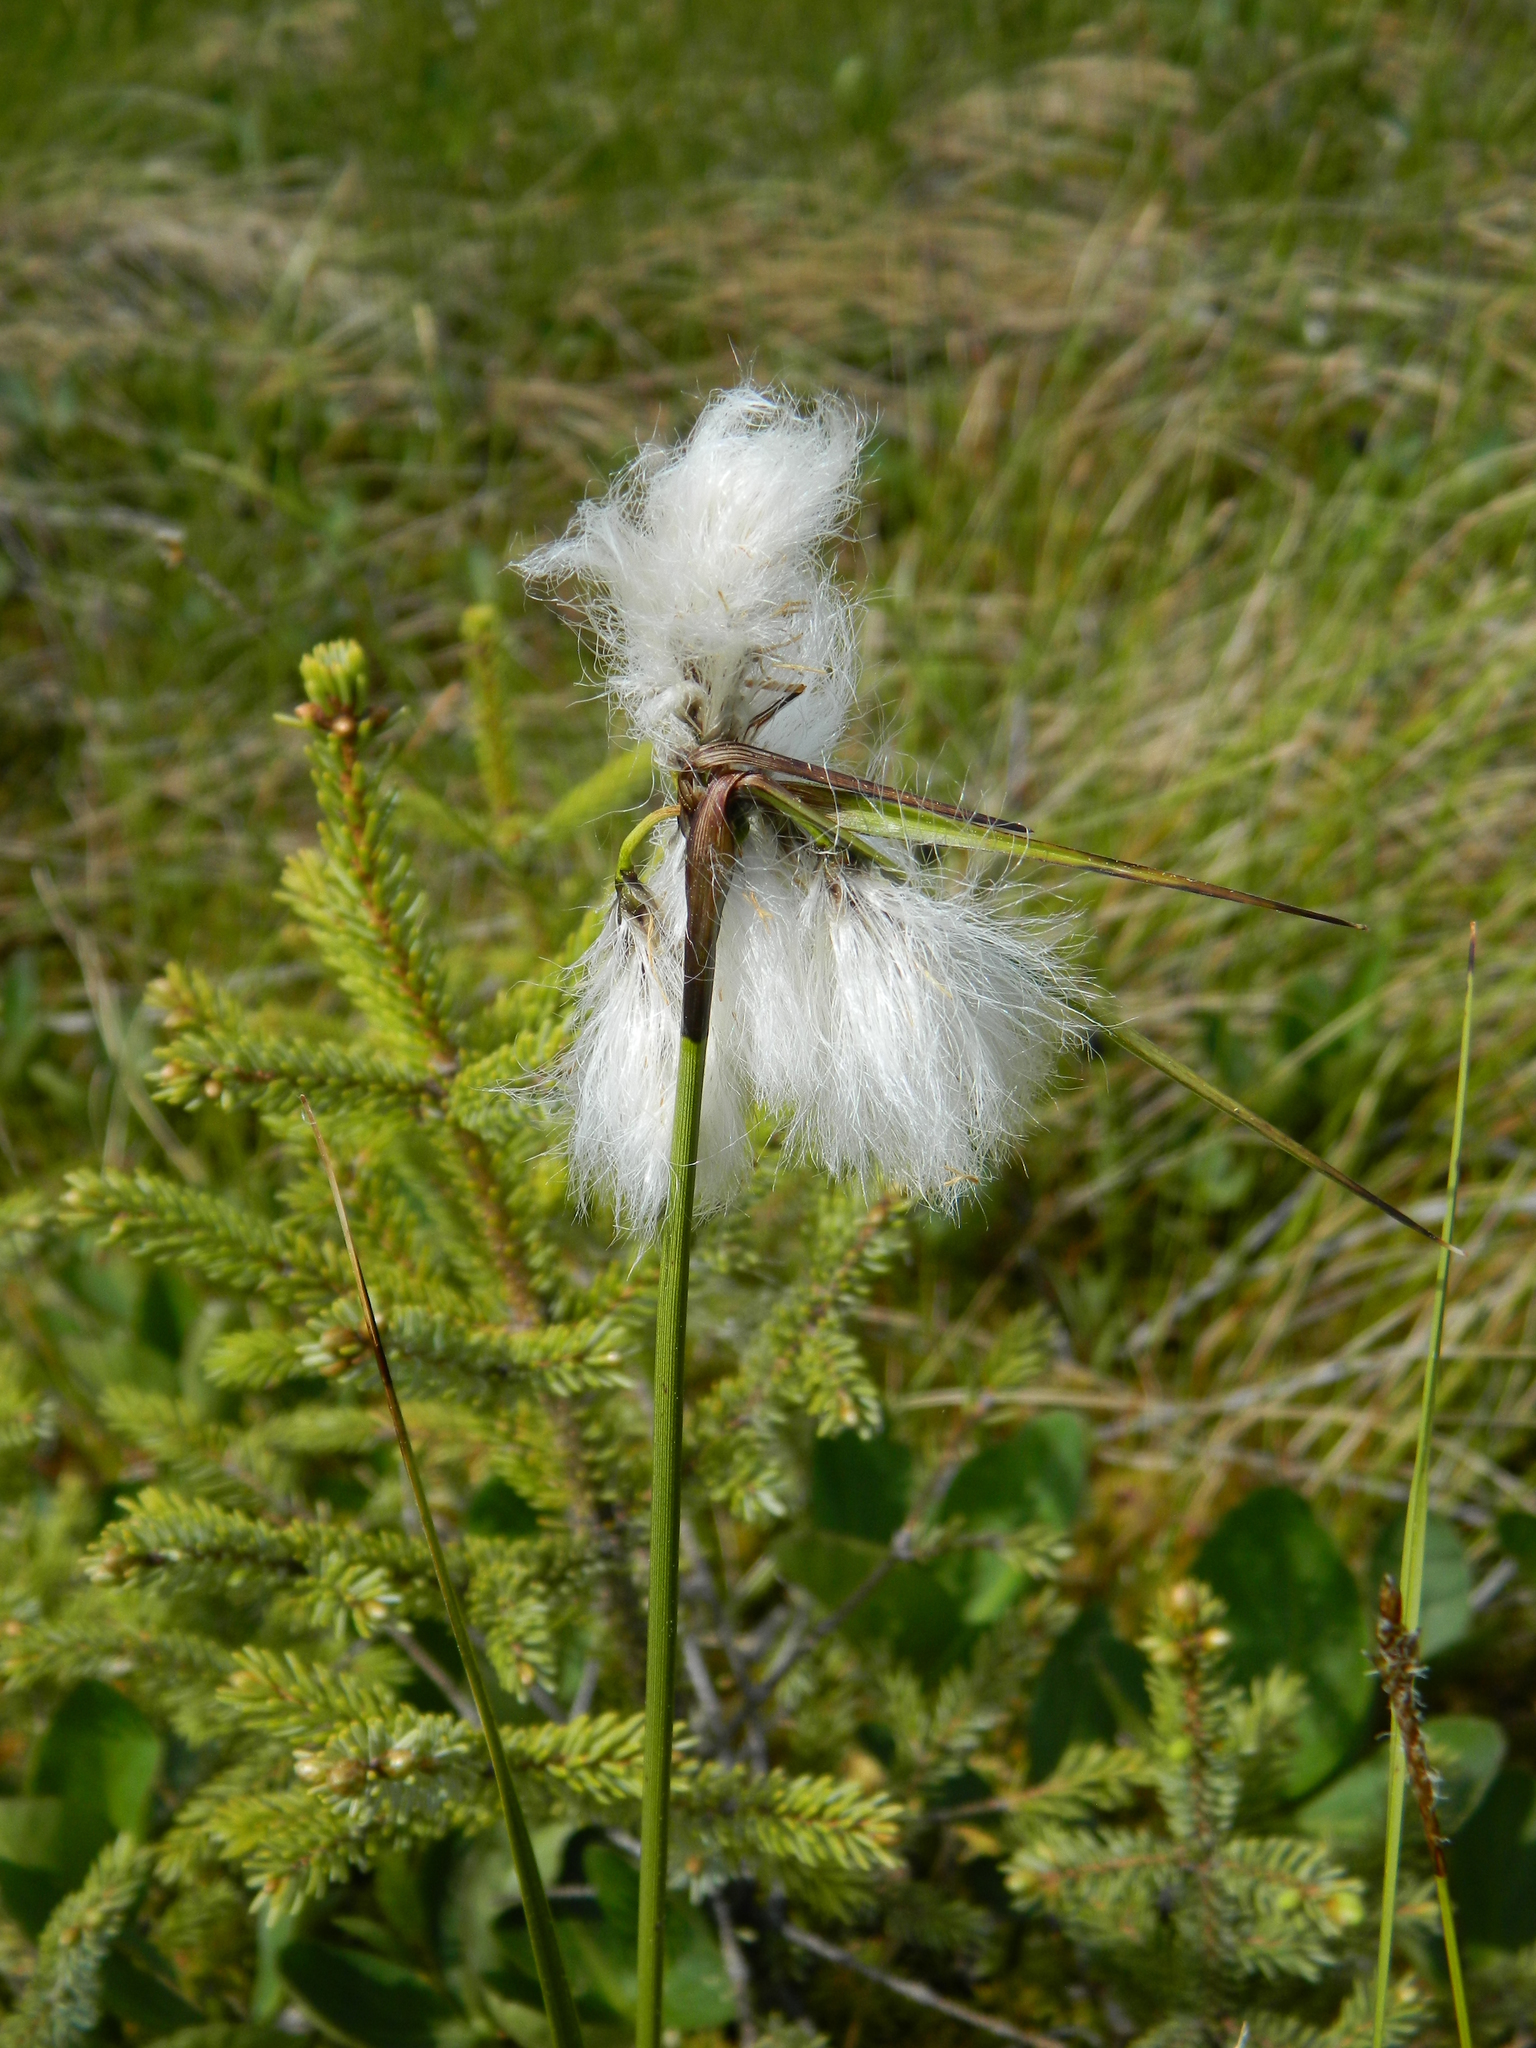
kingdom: Plantae
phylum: Tracheophyta
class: Liliopsida
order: Poales
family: Cyperaceae
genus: Eriophorum
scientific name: Eriophorum angustifolium
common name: Common cottongrass
